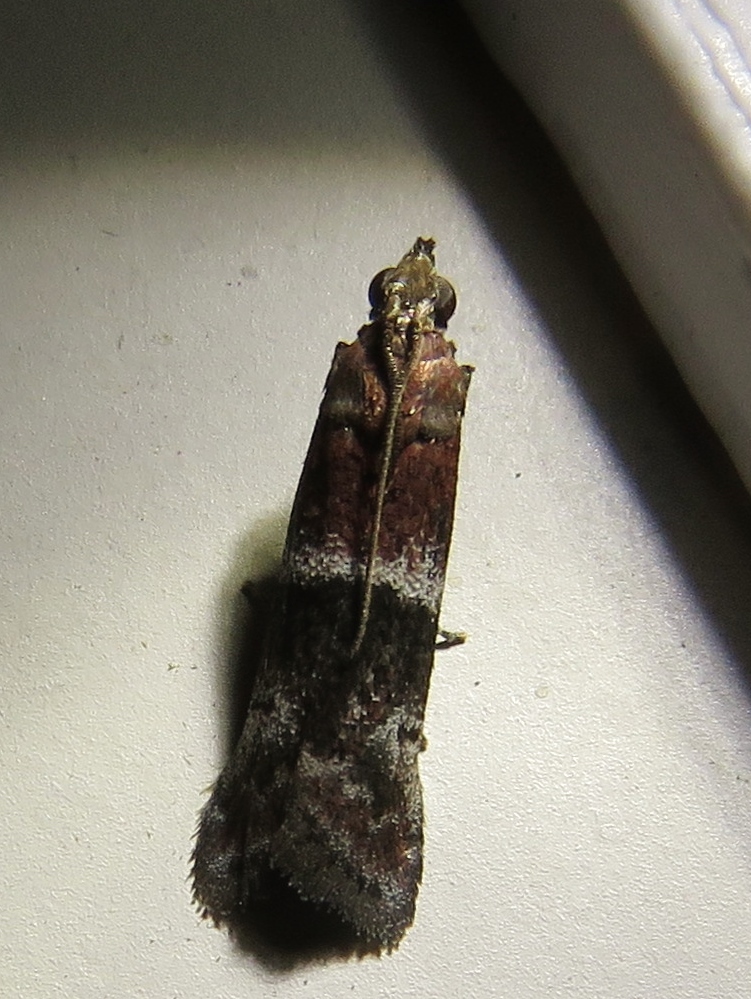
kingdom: Animalia
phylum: Arthropoda
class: Insecta
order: Lepidoptera
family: Pyralidae
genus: Moodna
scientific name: Moodna ostrinella
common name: Darker moodna moth
